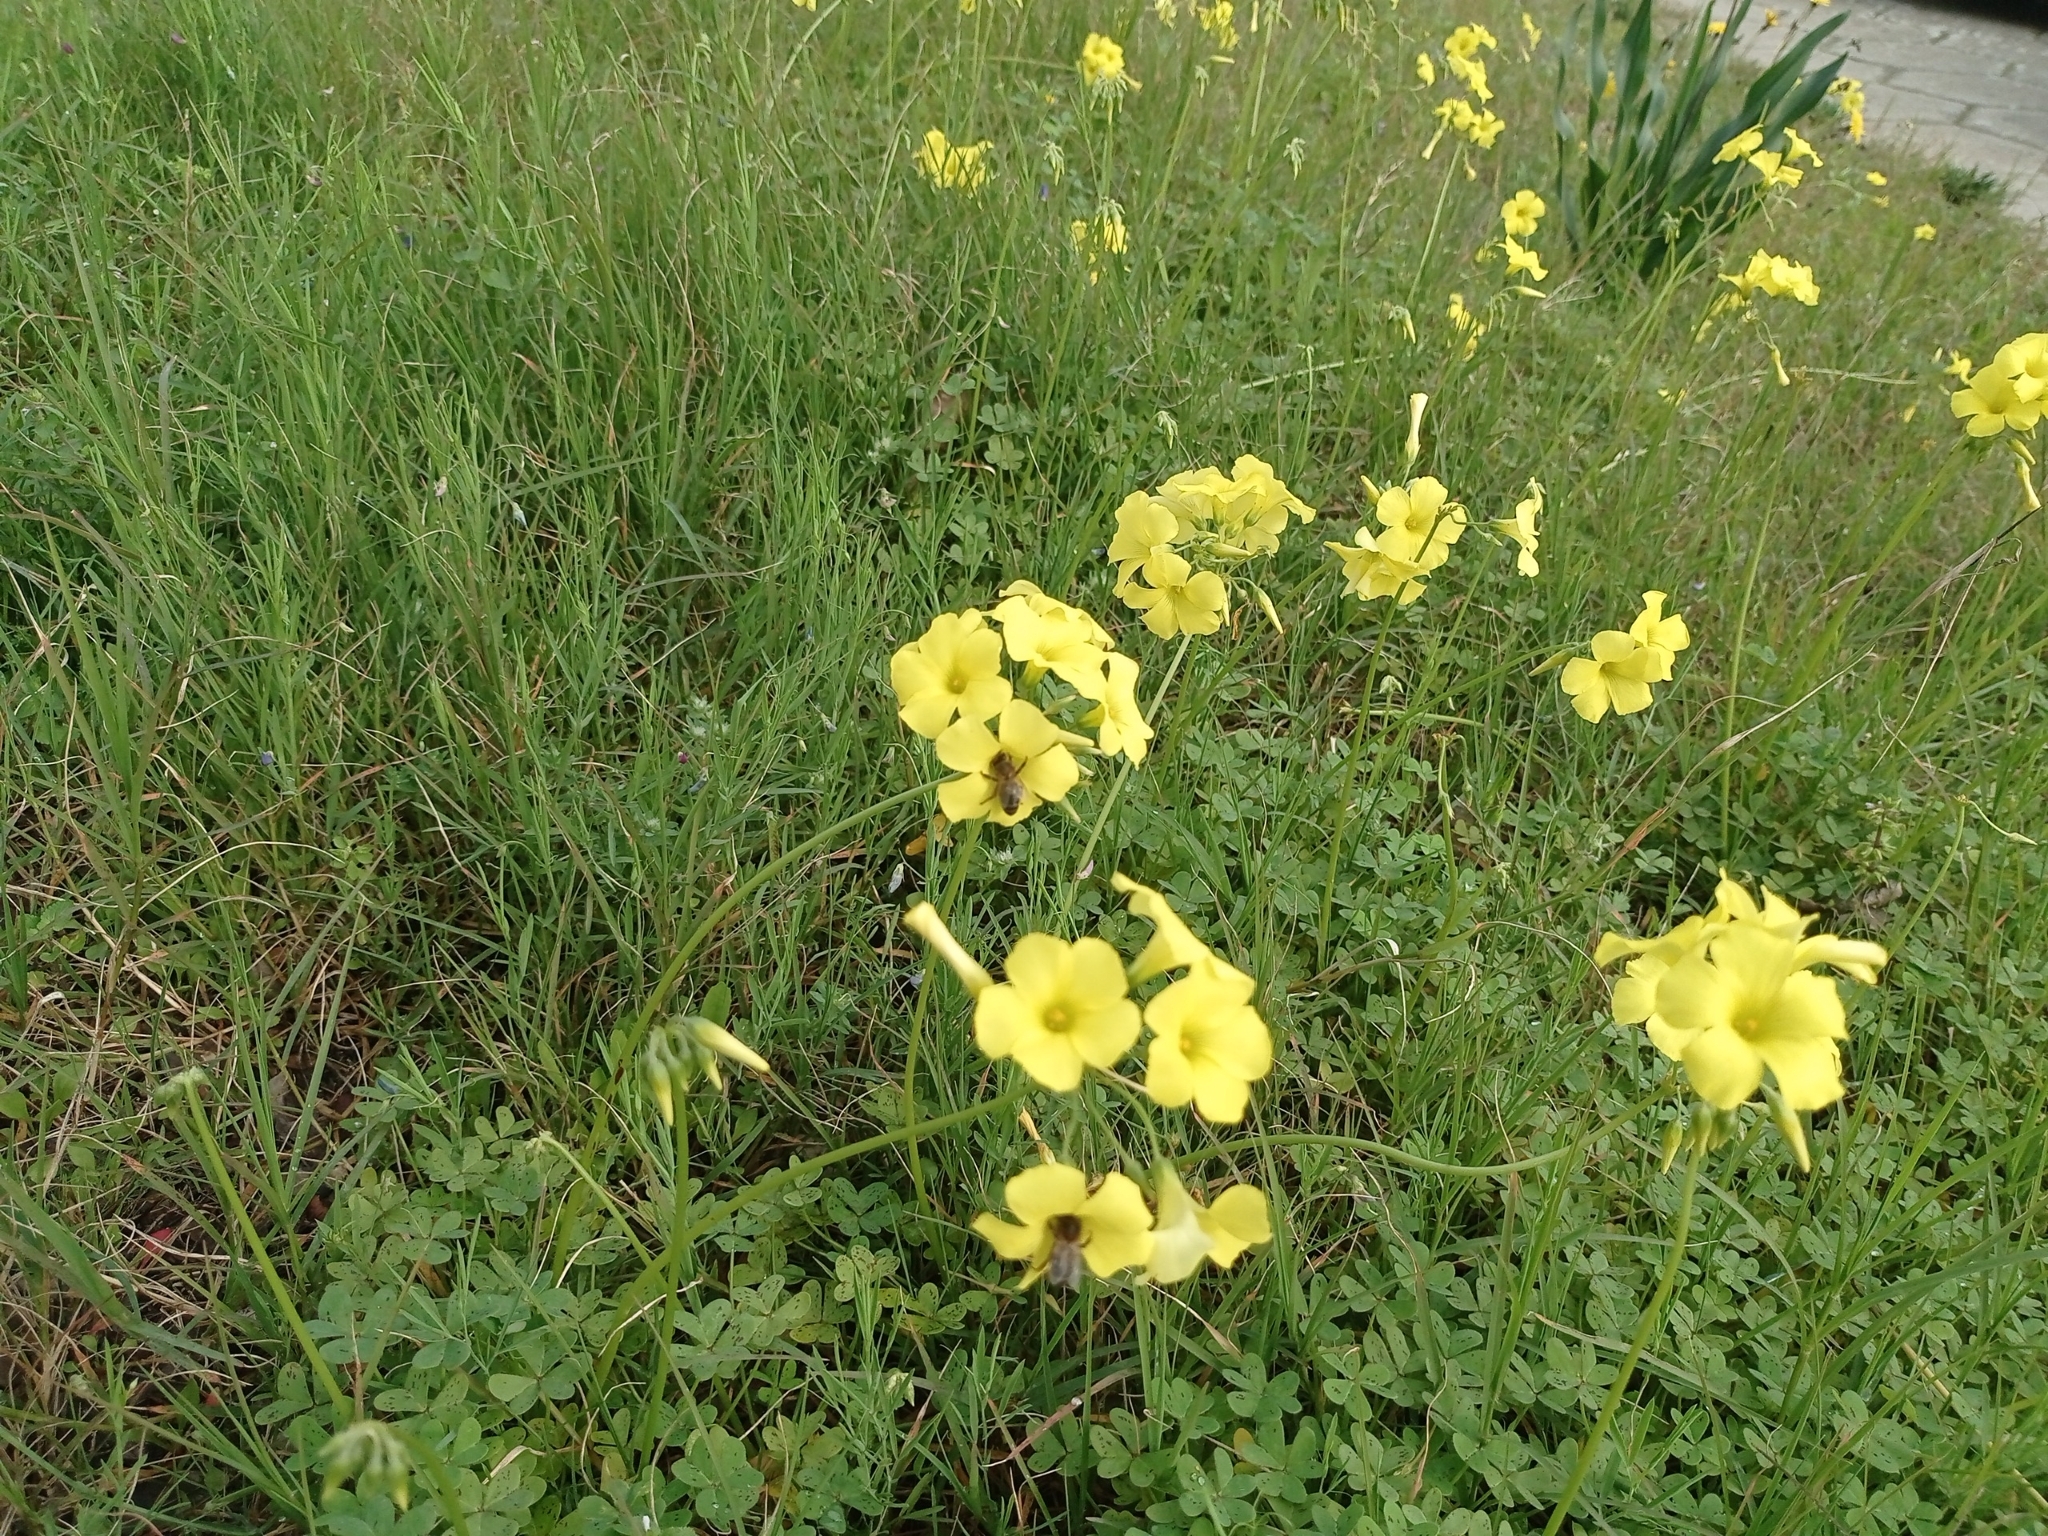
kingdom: Plantae
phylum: Tracheophyta
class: Magnoliopsida
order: Oxalidales
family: Oxalidaceae
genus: Oxalis
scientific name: Oxalis pes-caprae
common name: Bermuda-buttercup
